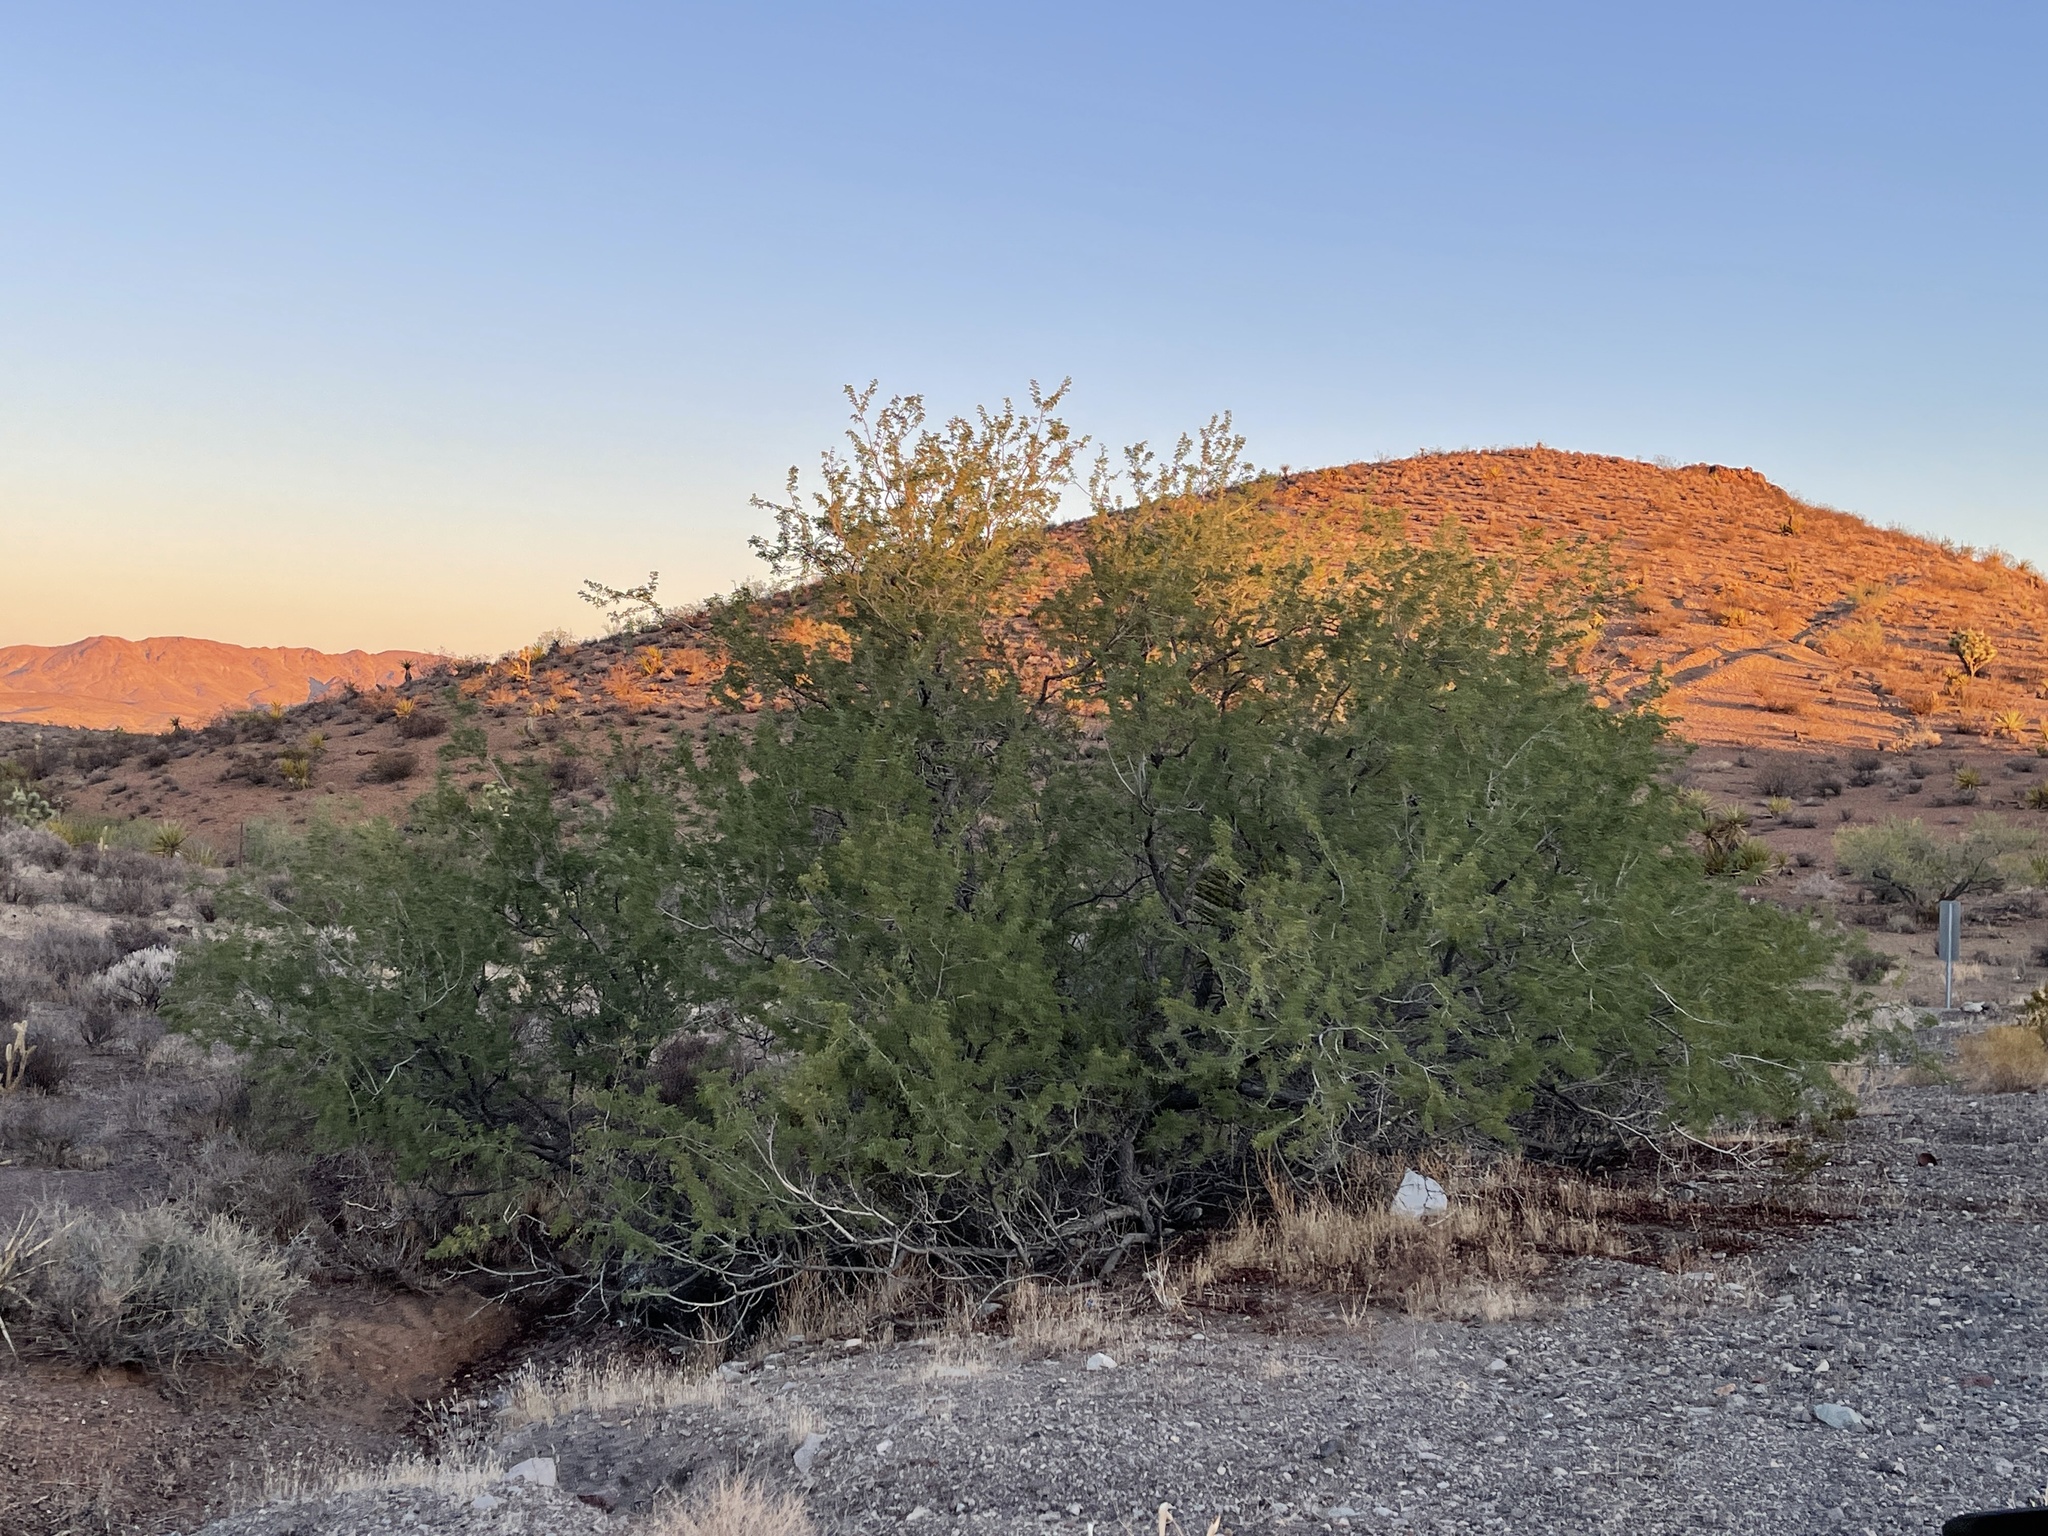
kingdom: Plantae
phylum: Tracheophyta
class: Magnoliopsida
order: Fabales
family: Fabaceae
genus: Senegalia
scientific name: Senegalia greggii
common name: Texas-mimosa
